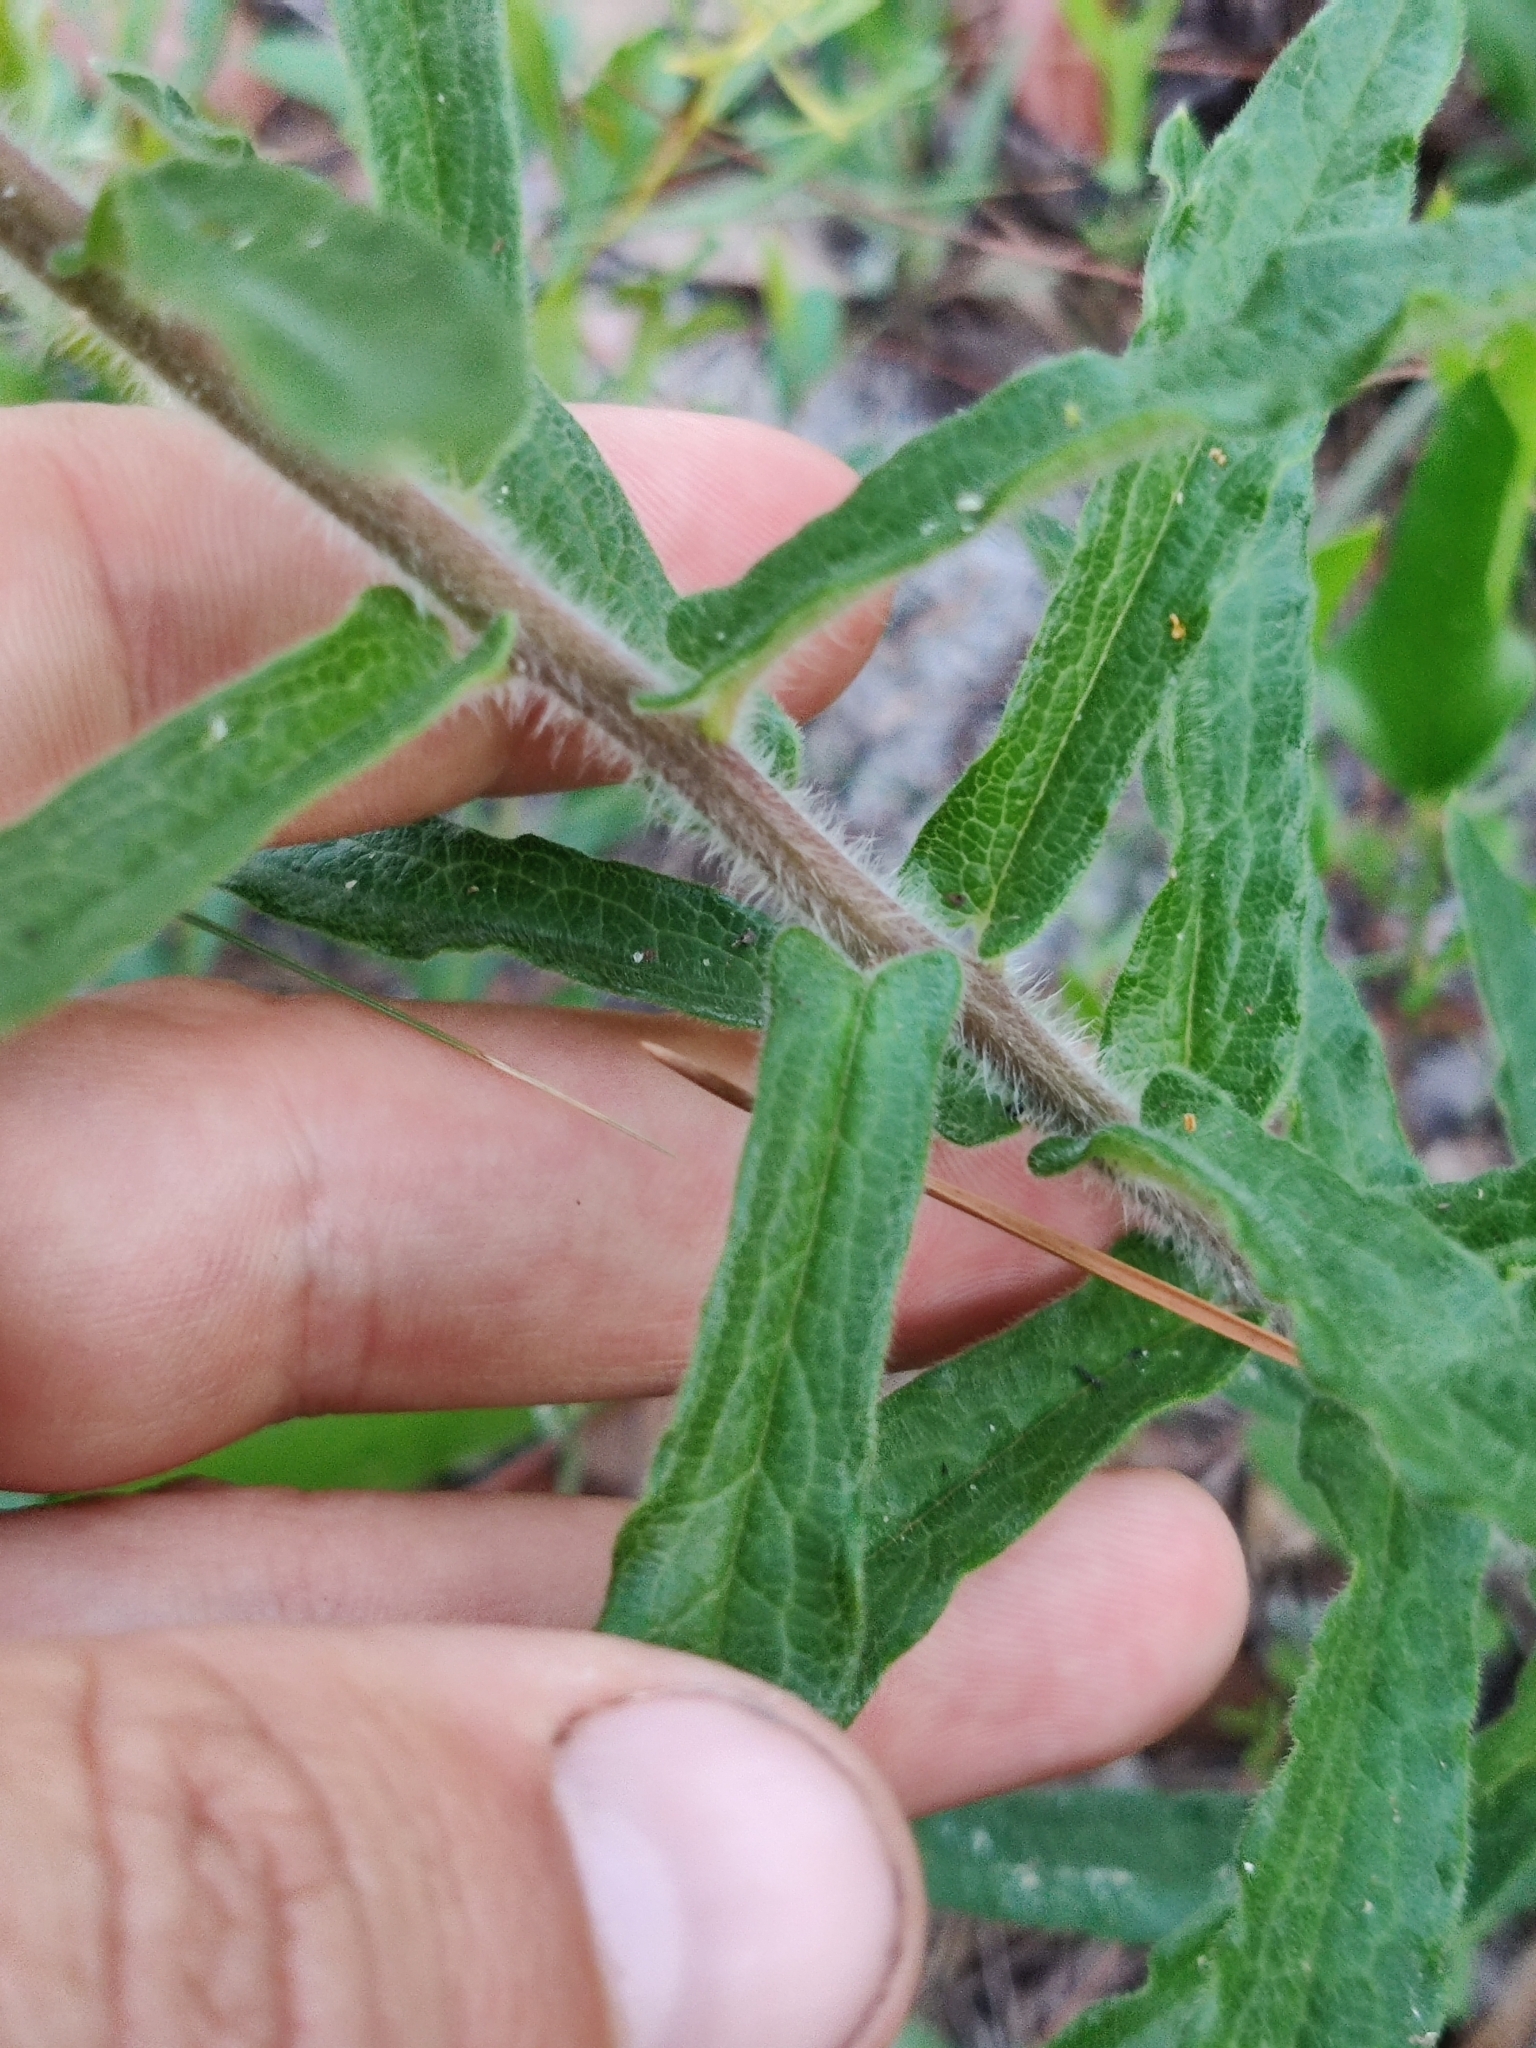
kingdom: Plantae
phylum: Tracheophyta
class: Magnoliopsida
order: Gentianales
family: Apocynaceae
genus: Asclepias
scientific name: Asclepias tuberosa
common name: Butterfly milkweed
